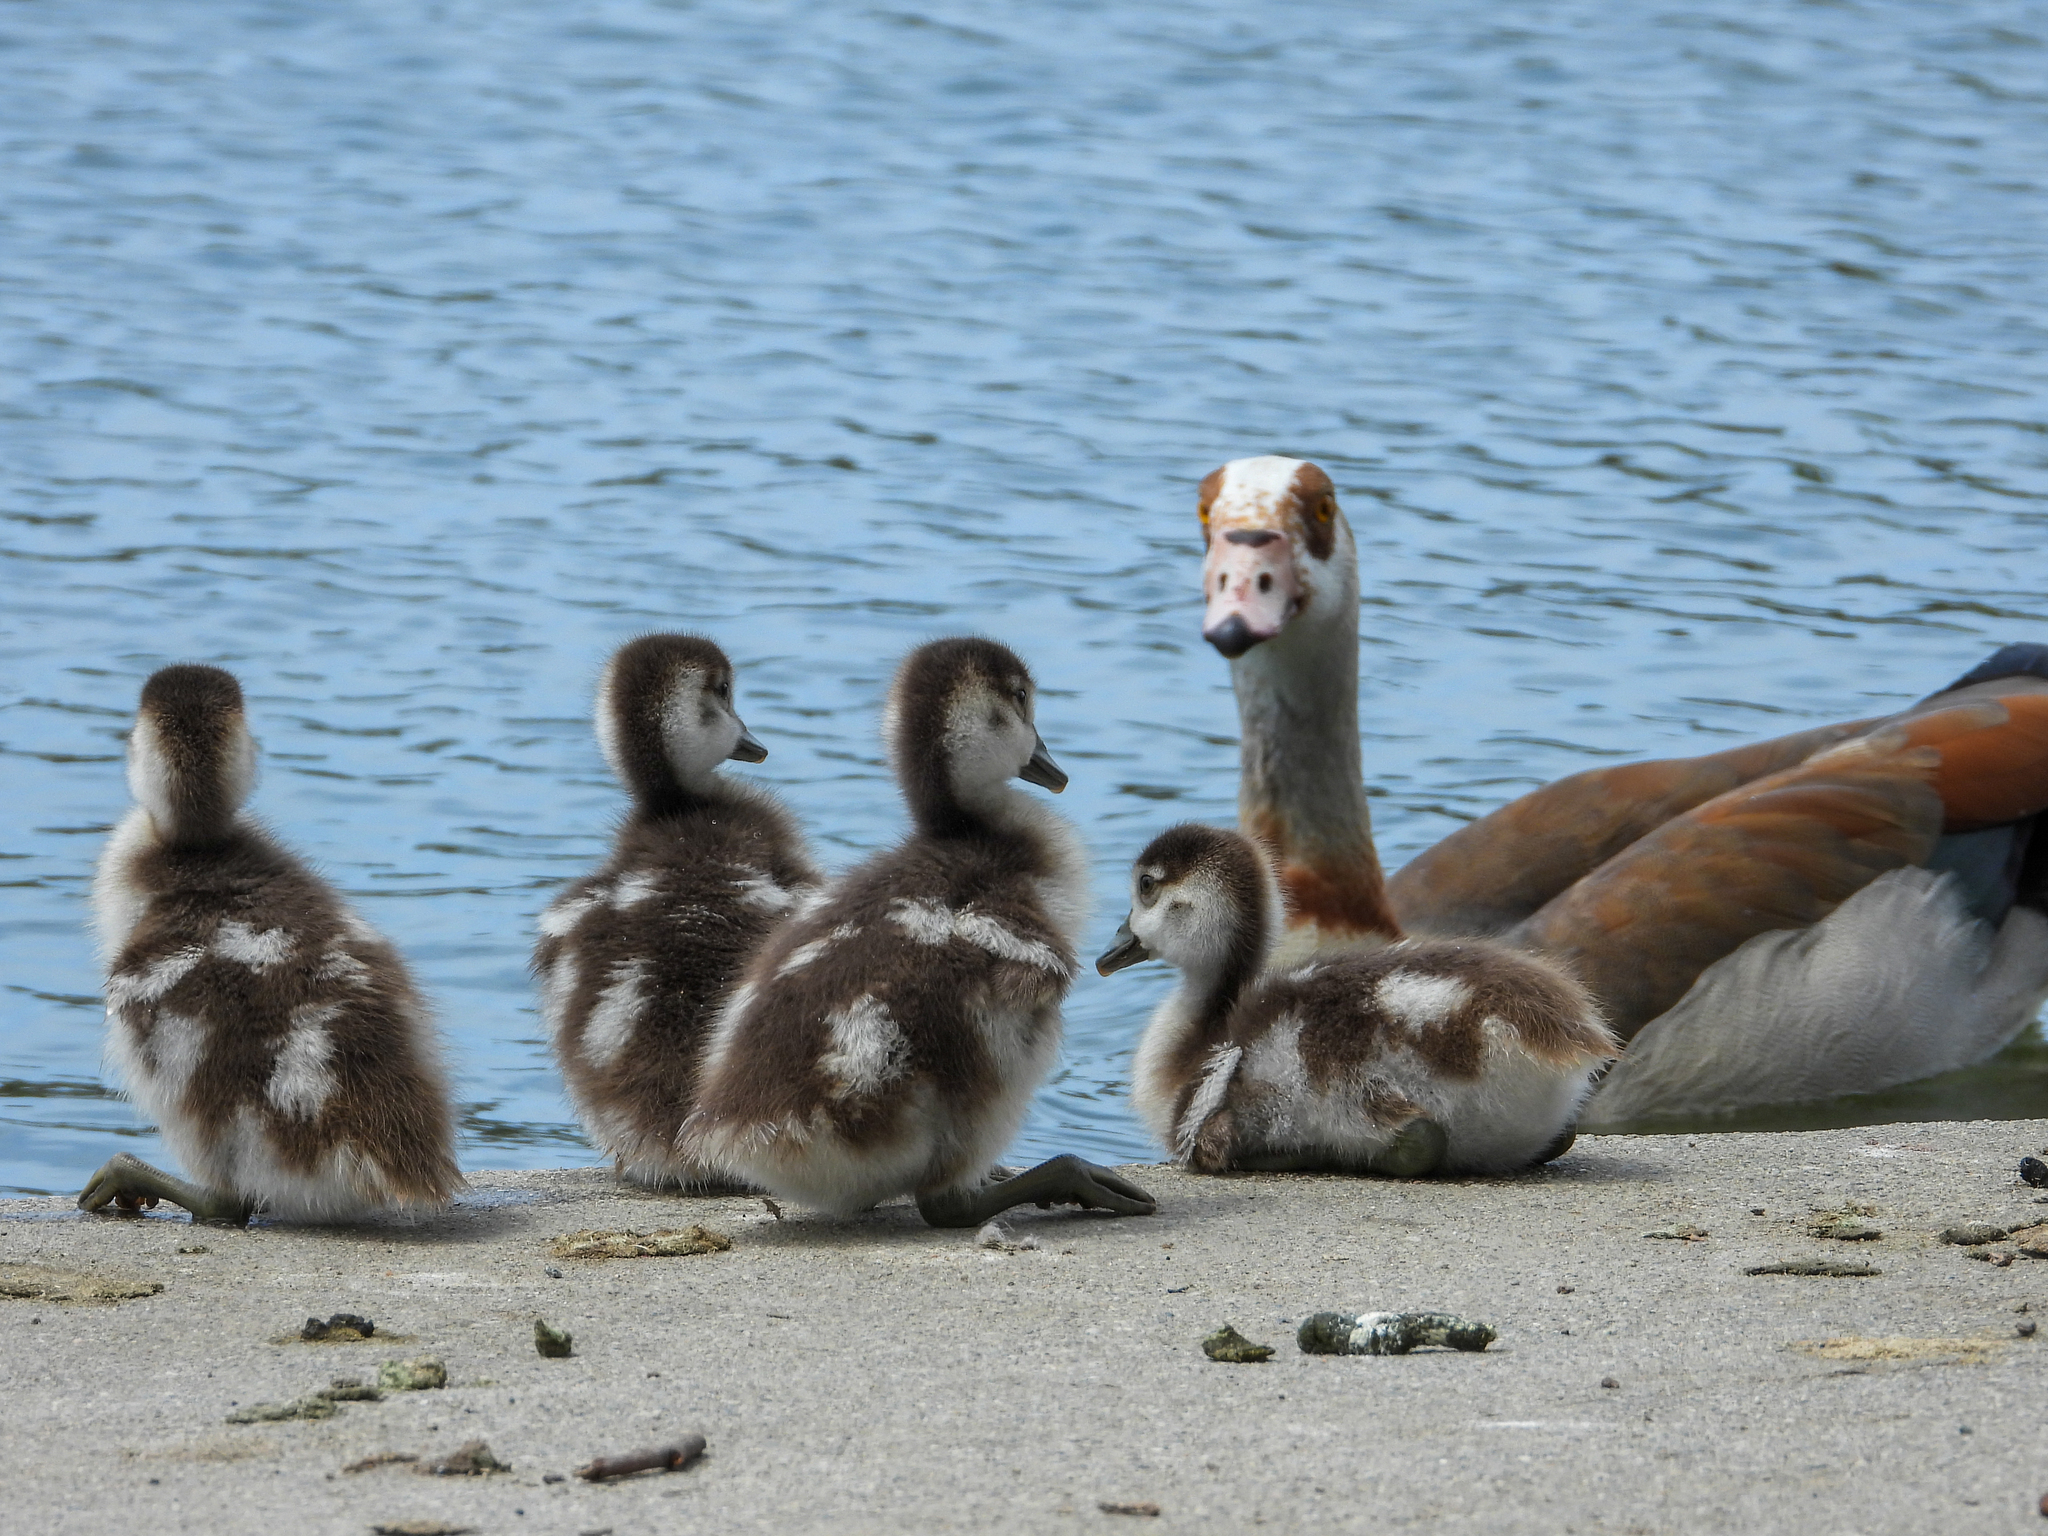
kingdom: Animalia
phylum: Chordata
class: Aves
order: Anseriformes
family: Anatidae
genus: Alopochen
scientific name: Alopochen aegyptiaca
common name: Egyptian goose
